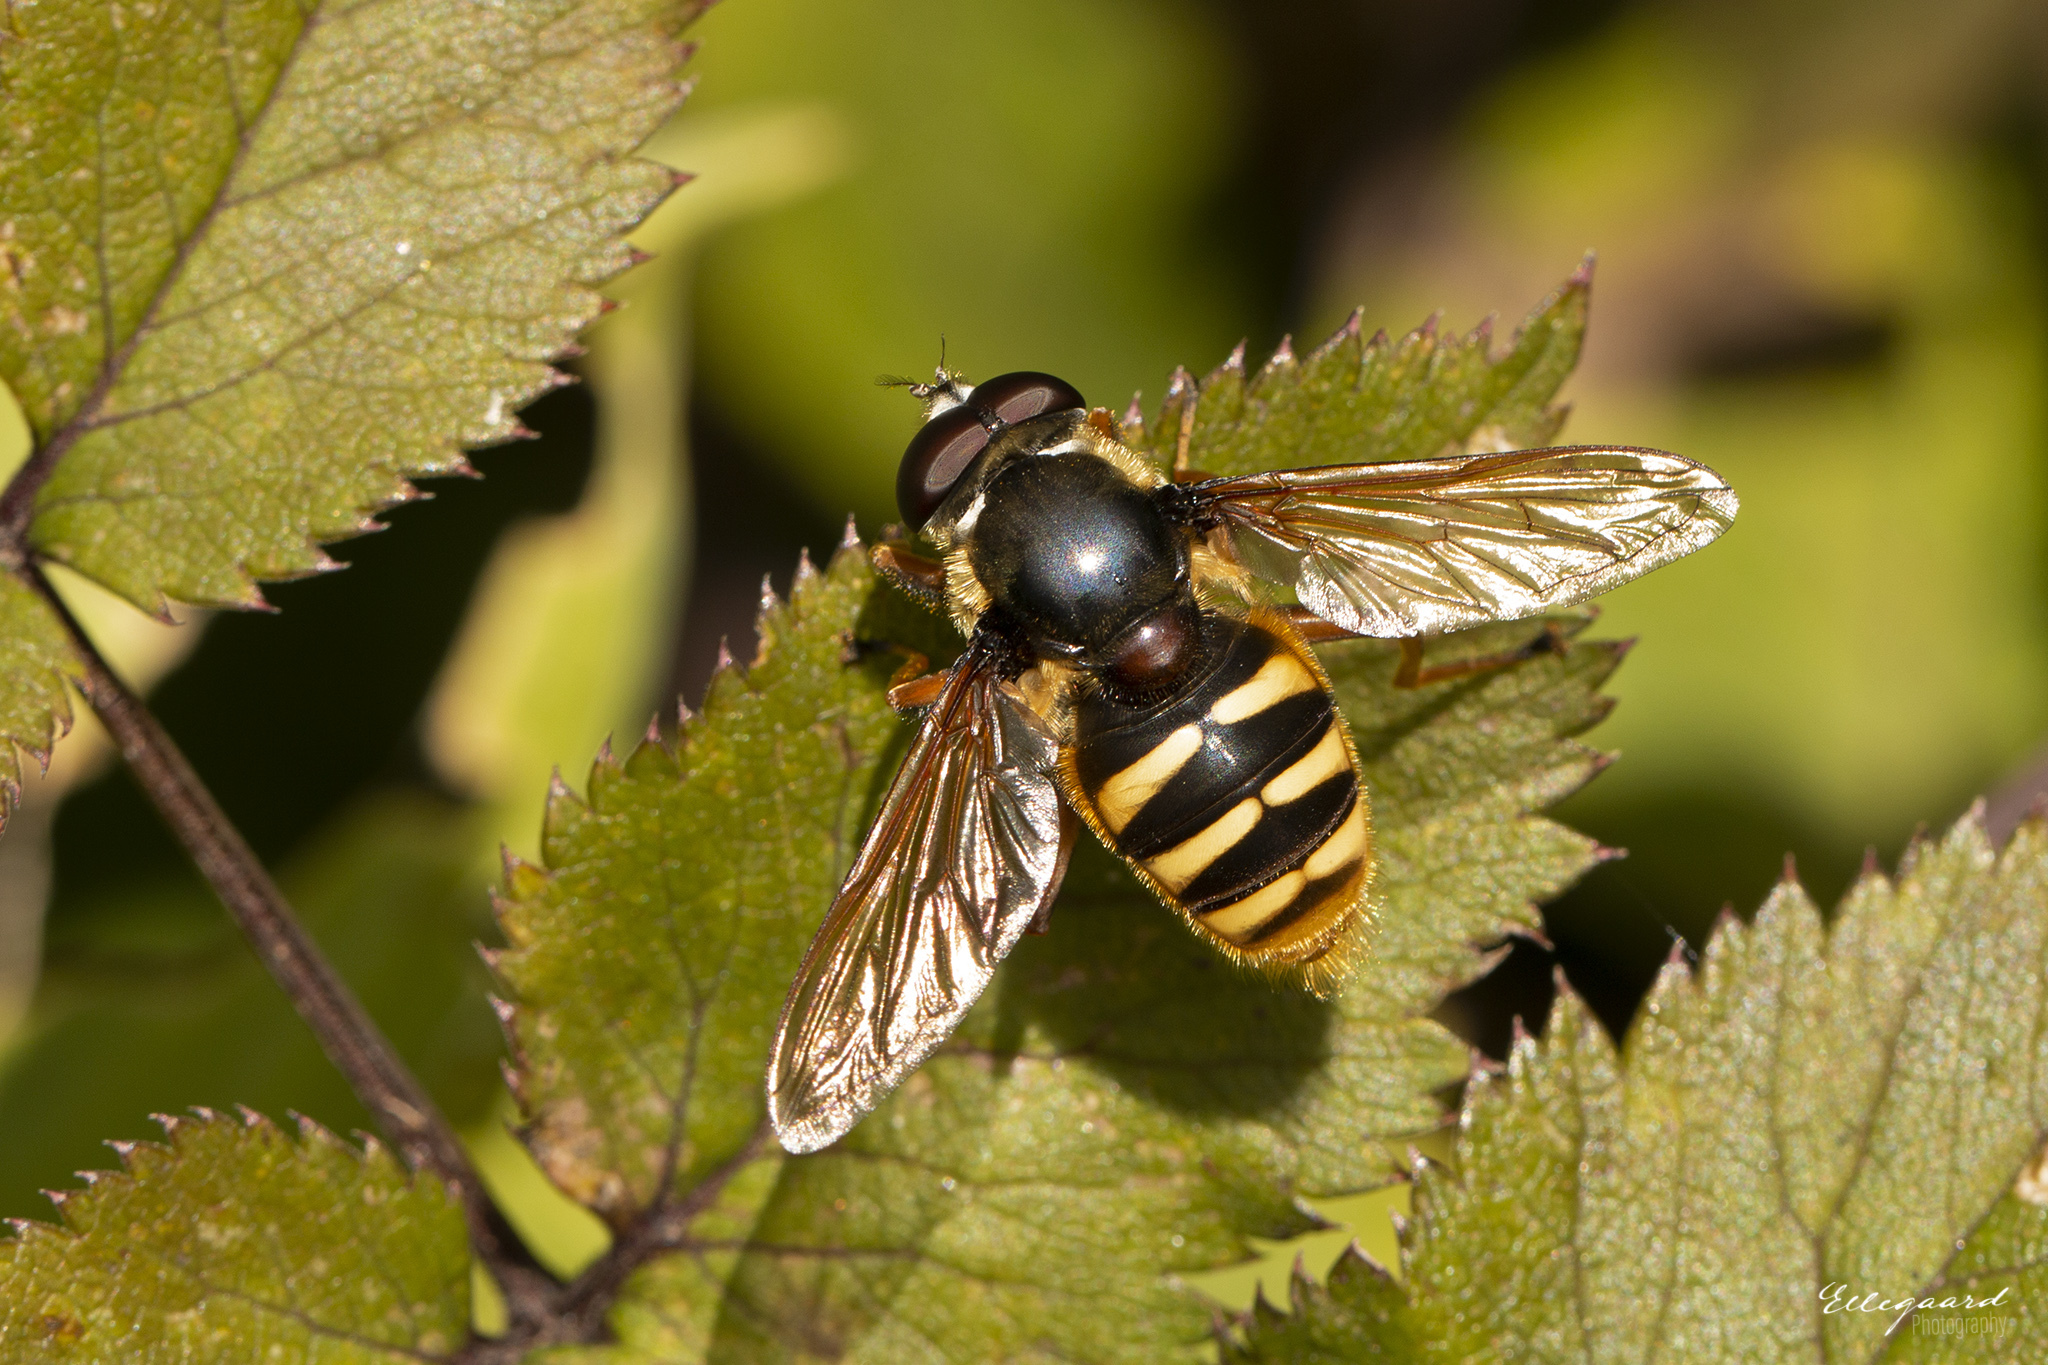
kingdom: Animalia
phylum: Arthropoda
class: Insecta
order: Diptera
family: Syrphidae
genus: Sericomyia
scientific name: Sericomyia silentis
